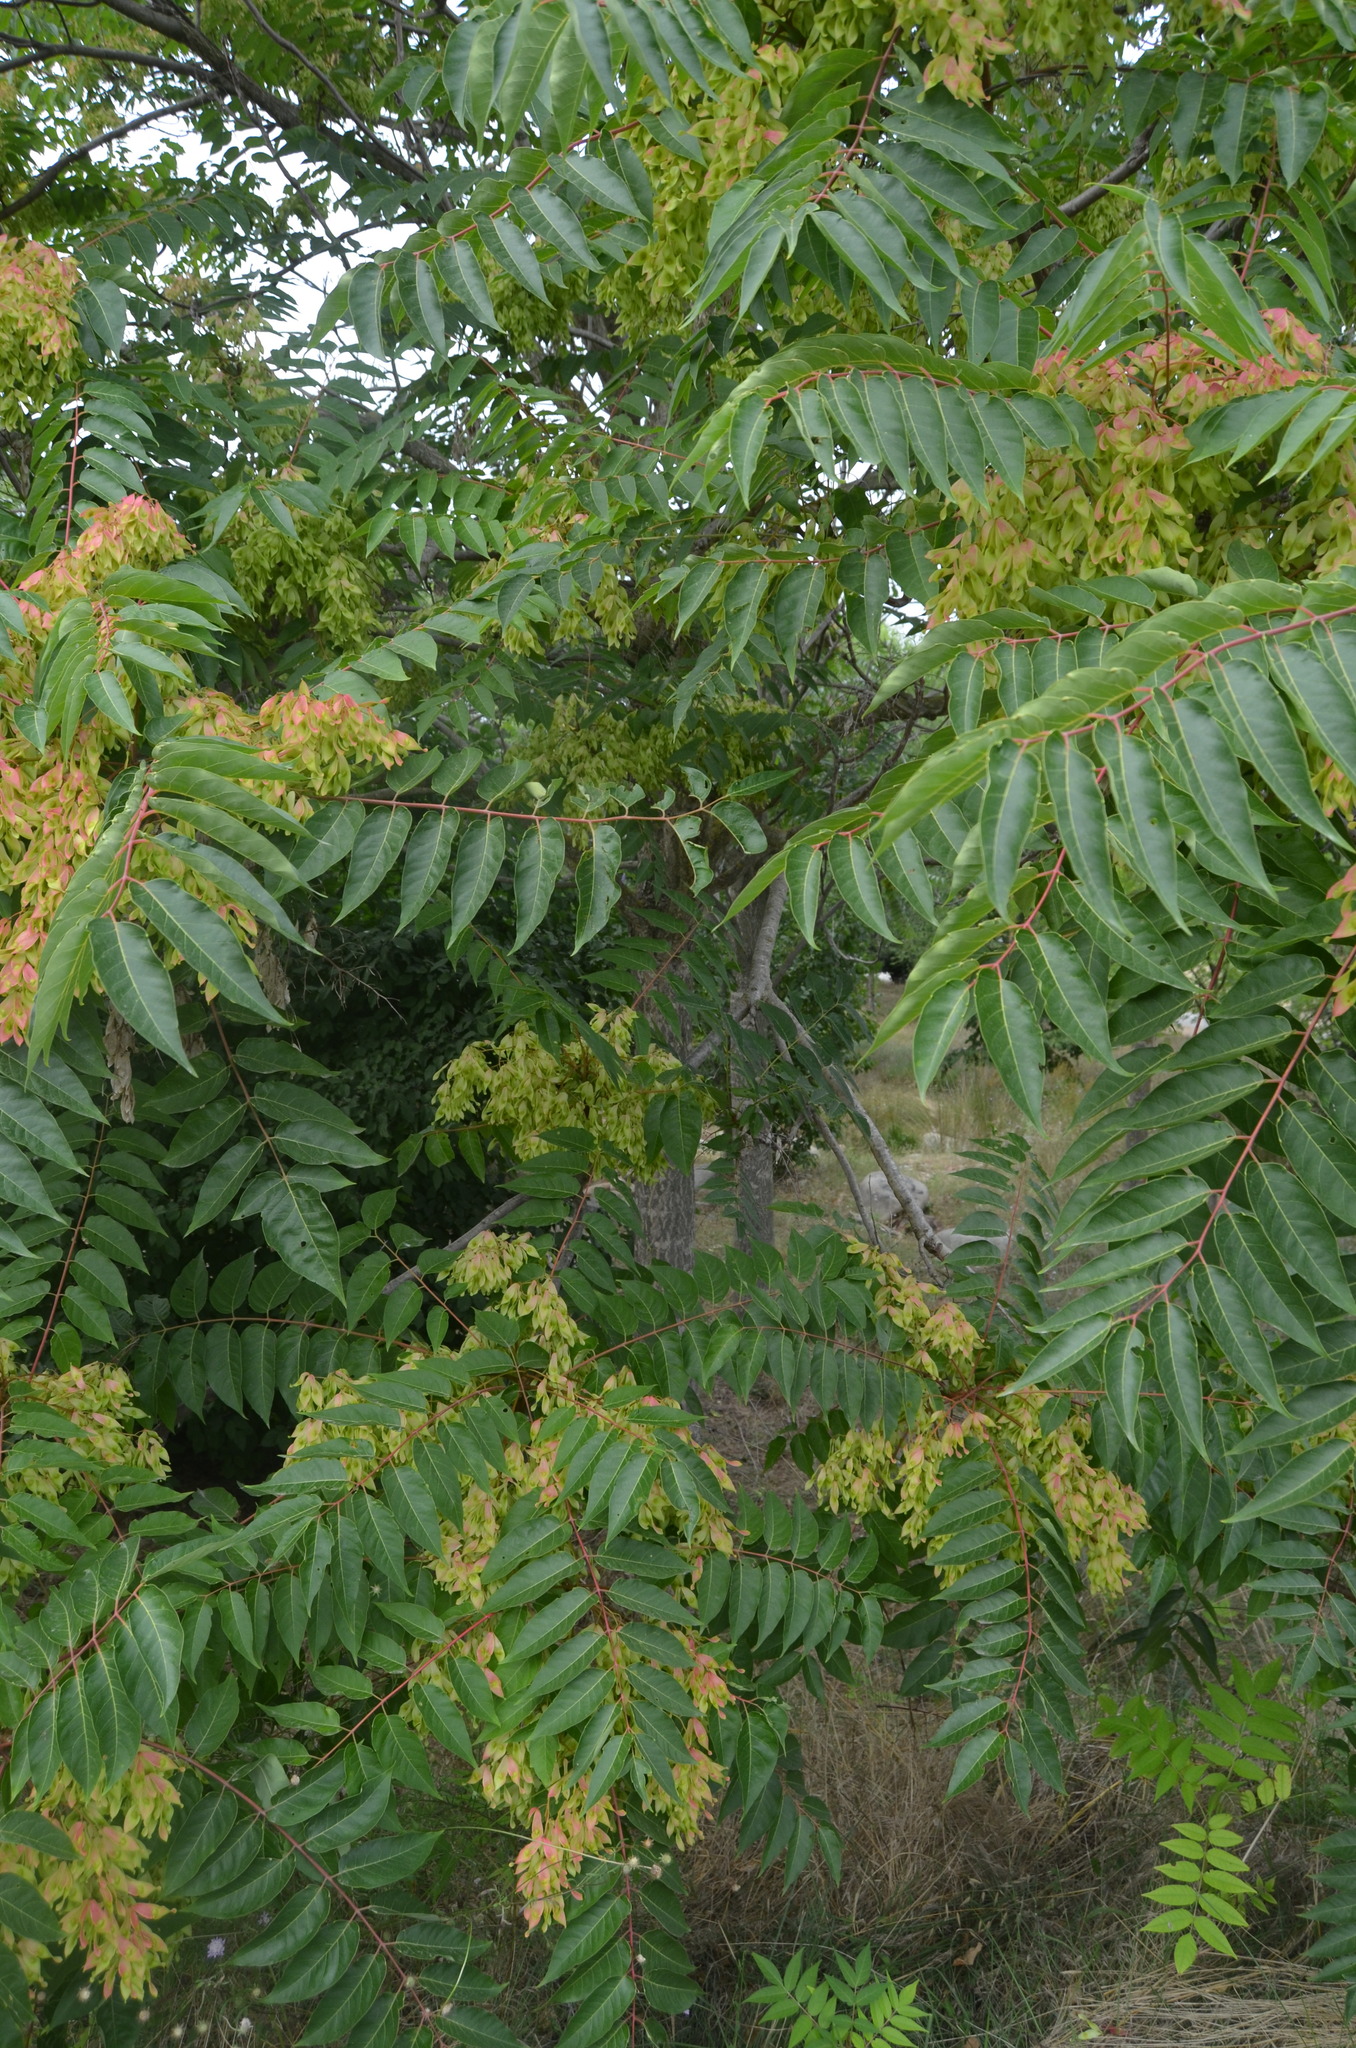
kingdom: Plantae
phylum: Tracheophyta
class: Magnoliopsida
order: Sapindales
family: Simaroubaceae
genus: Ailanthus
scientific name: Ailanthus altissima
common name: Tree-of-heaven
